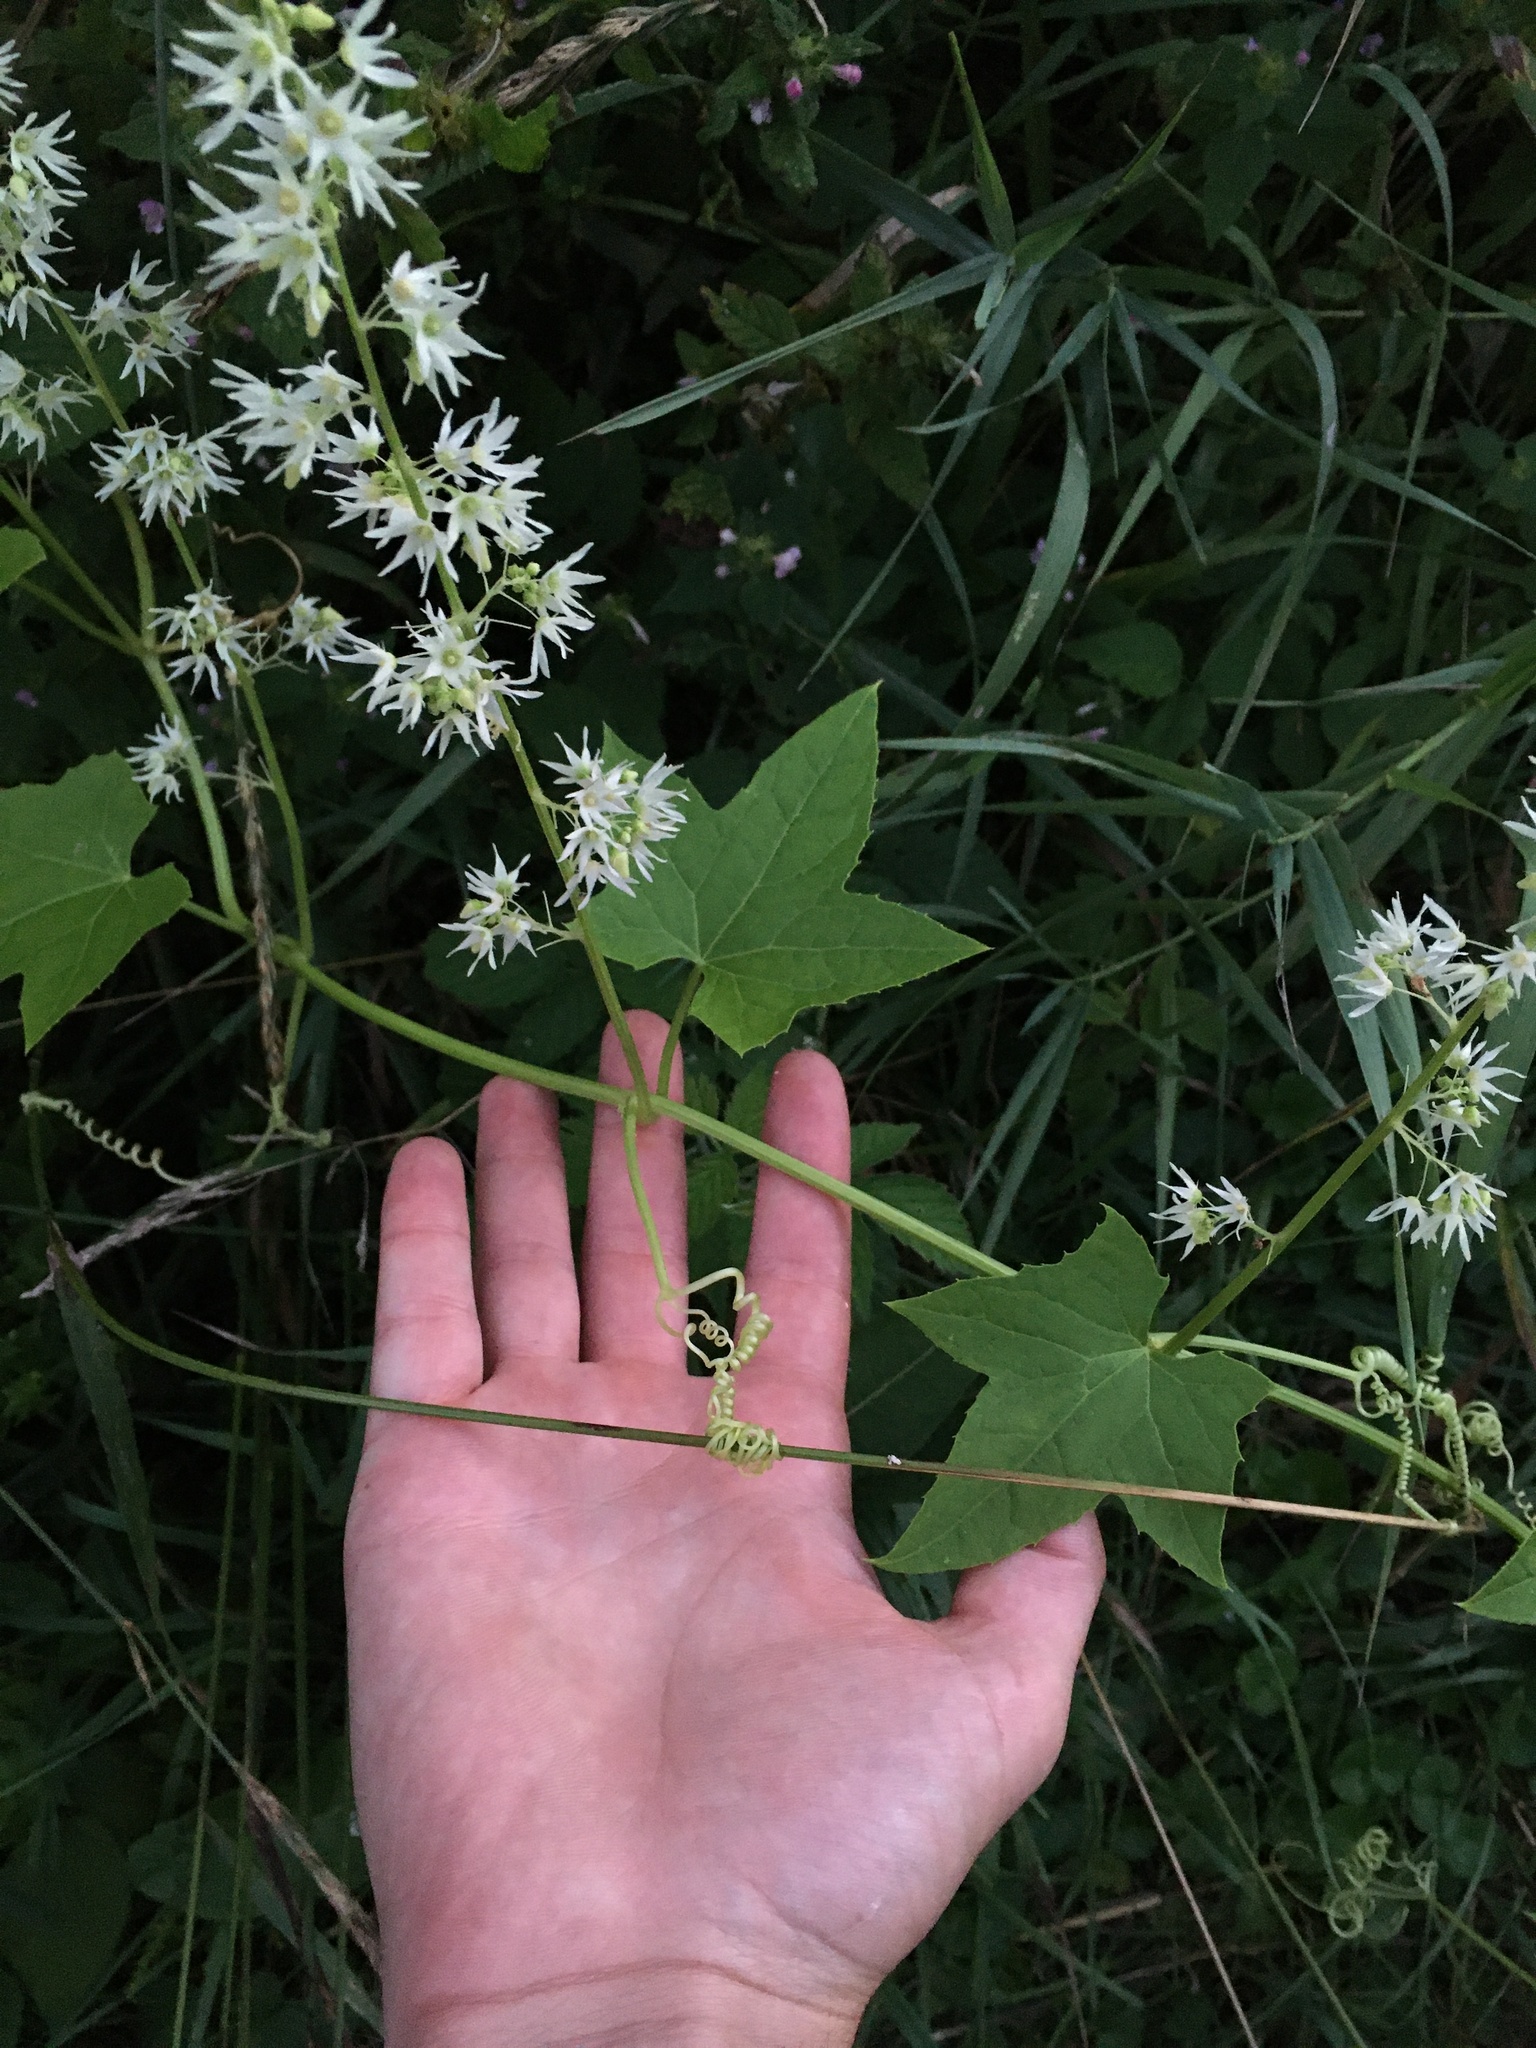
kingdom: Plantae
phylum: Tracheophyta
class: Magnoliopsida
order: Cucurbitales
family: Cucurbitaceae
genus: Echinocystis
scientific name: Echinocystis lobata
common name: Wild cucumber
